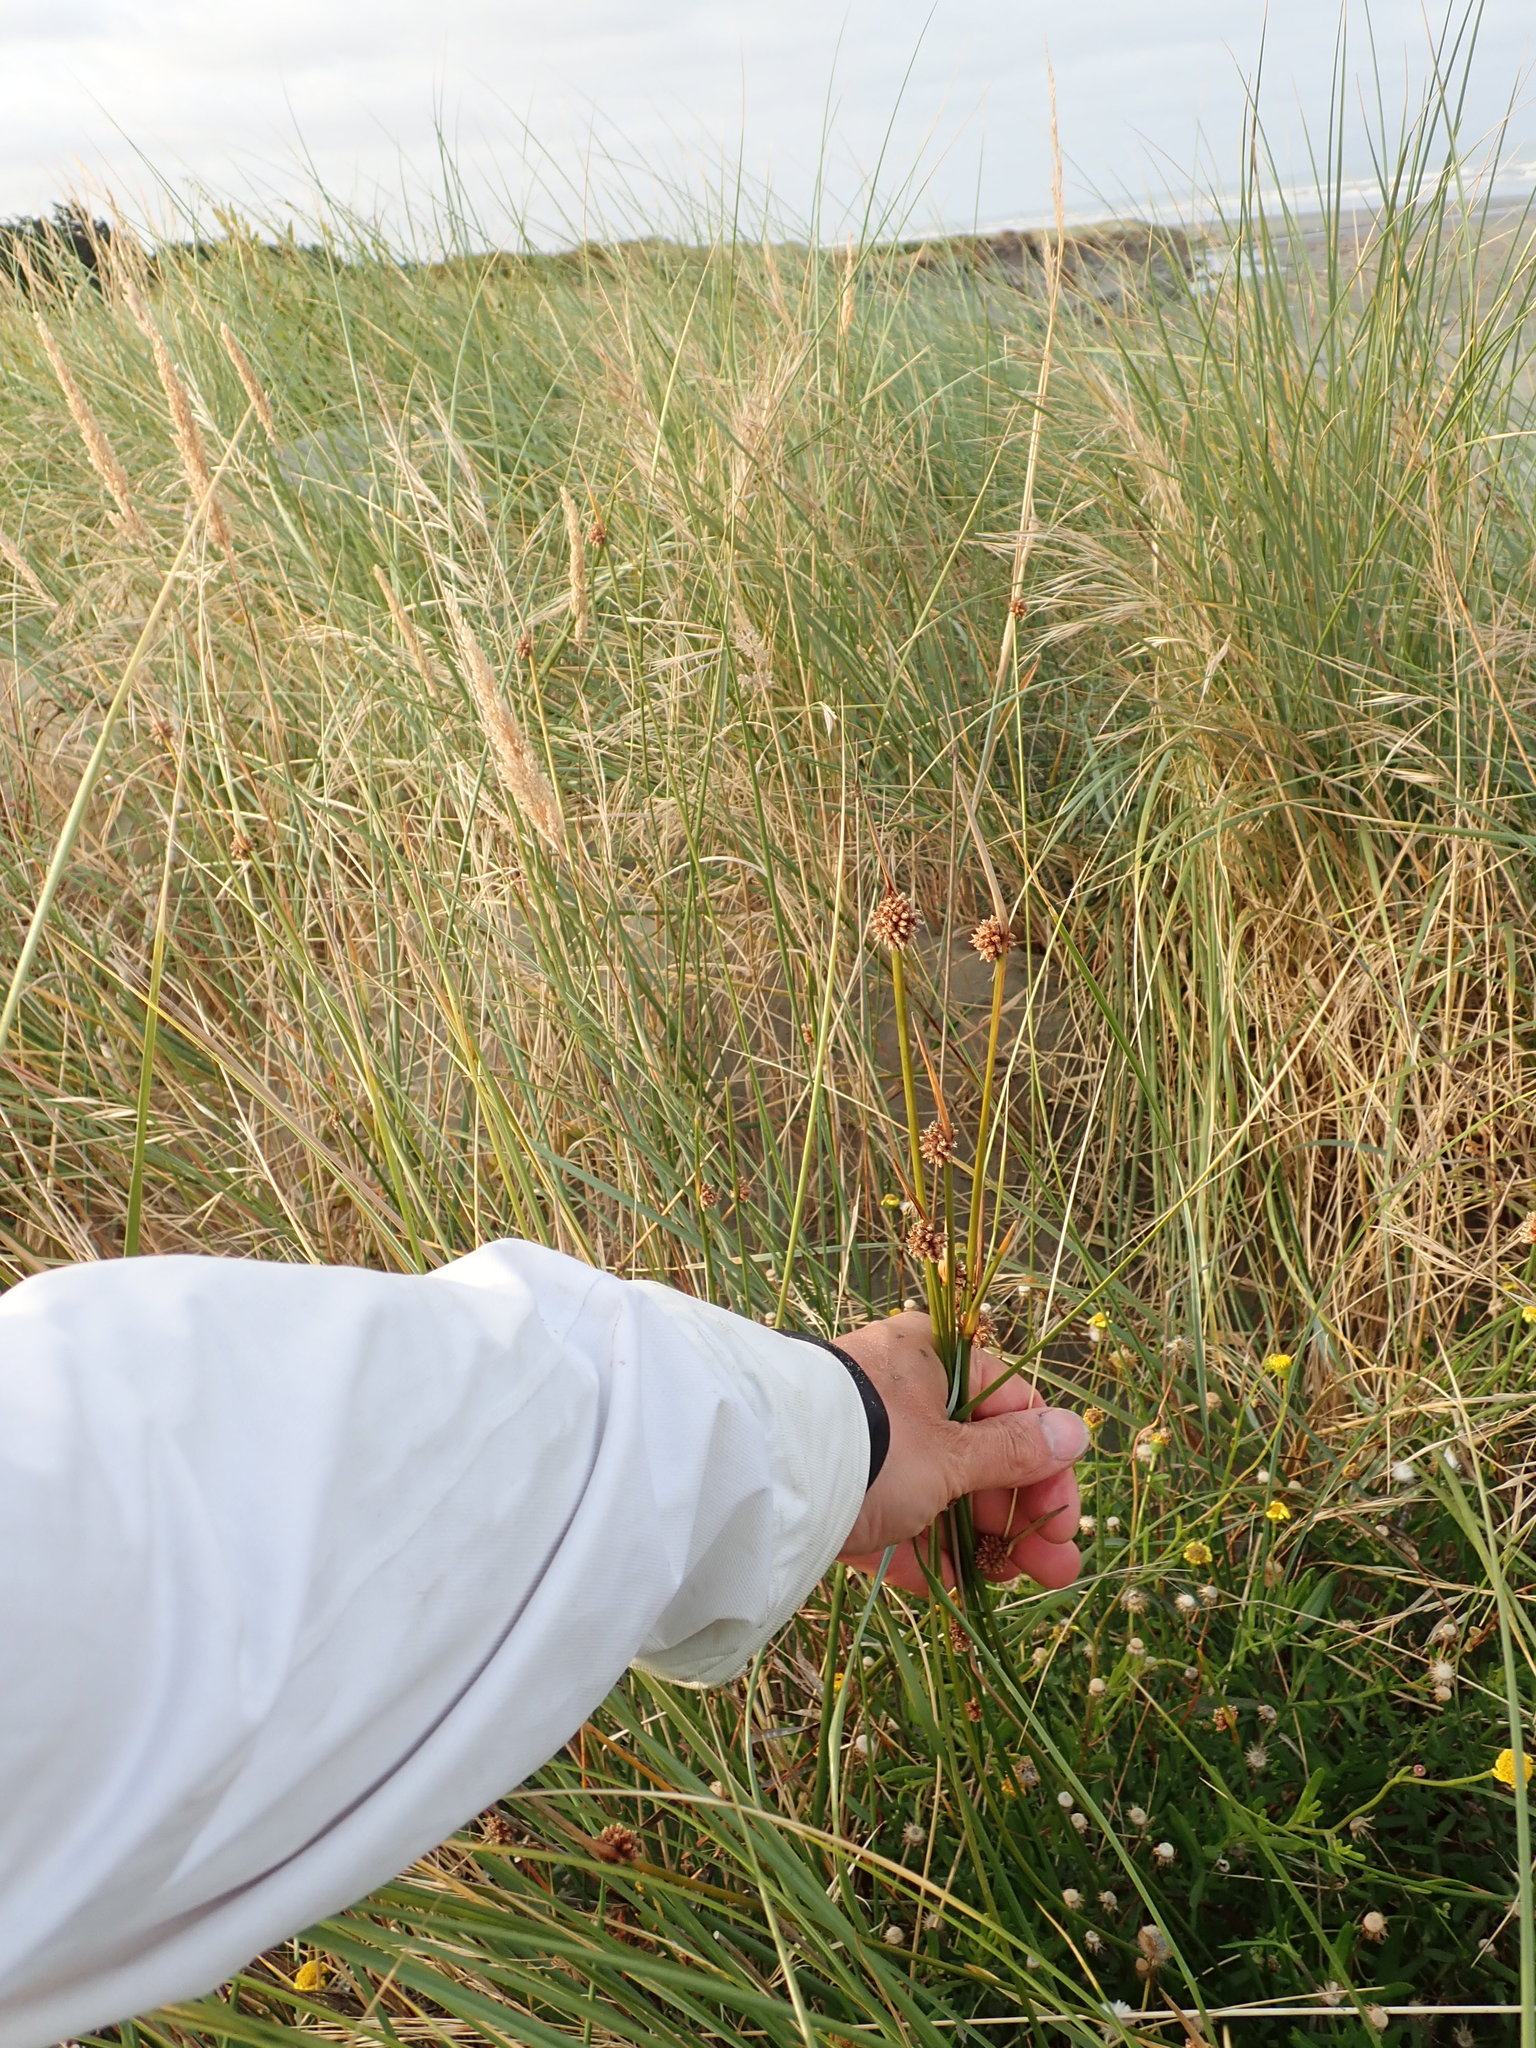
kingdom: Plantae
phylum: Tracheophyta
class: Liliopsida
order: Poales
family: Cyperaceae
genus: Ficinia
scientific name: Ficinia nodosa
